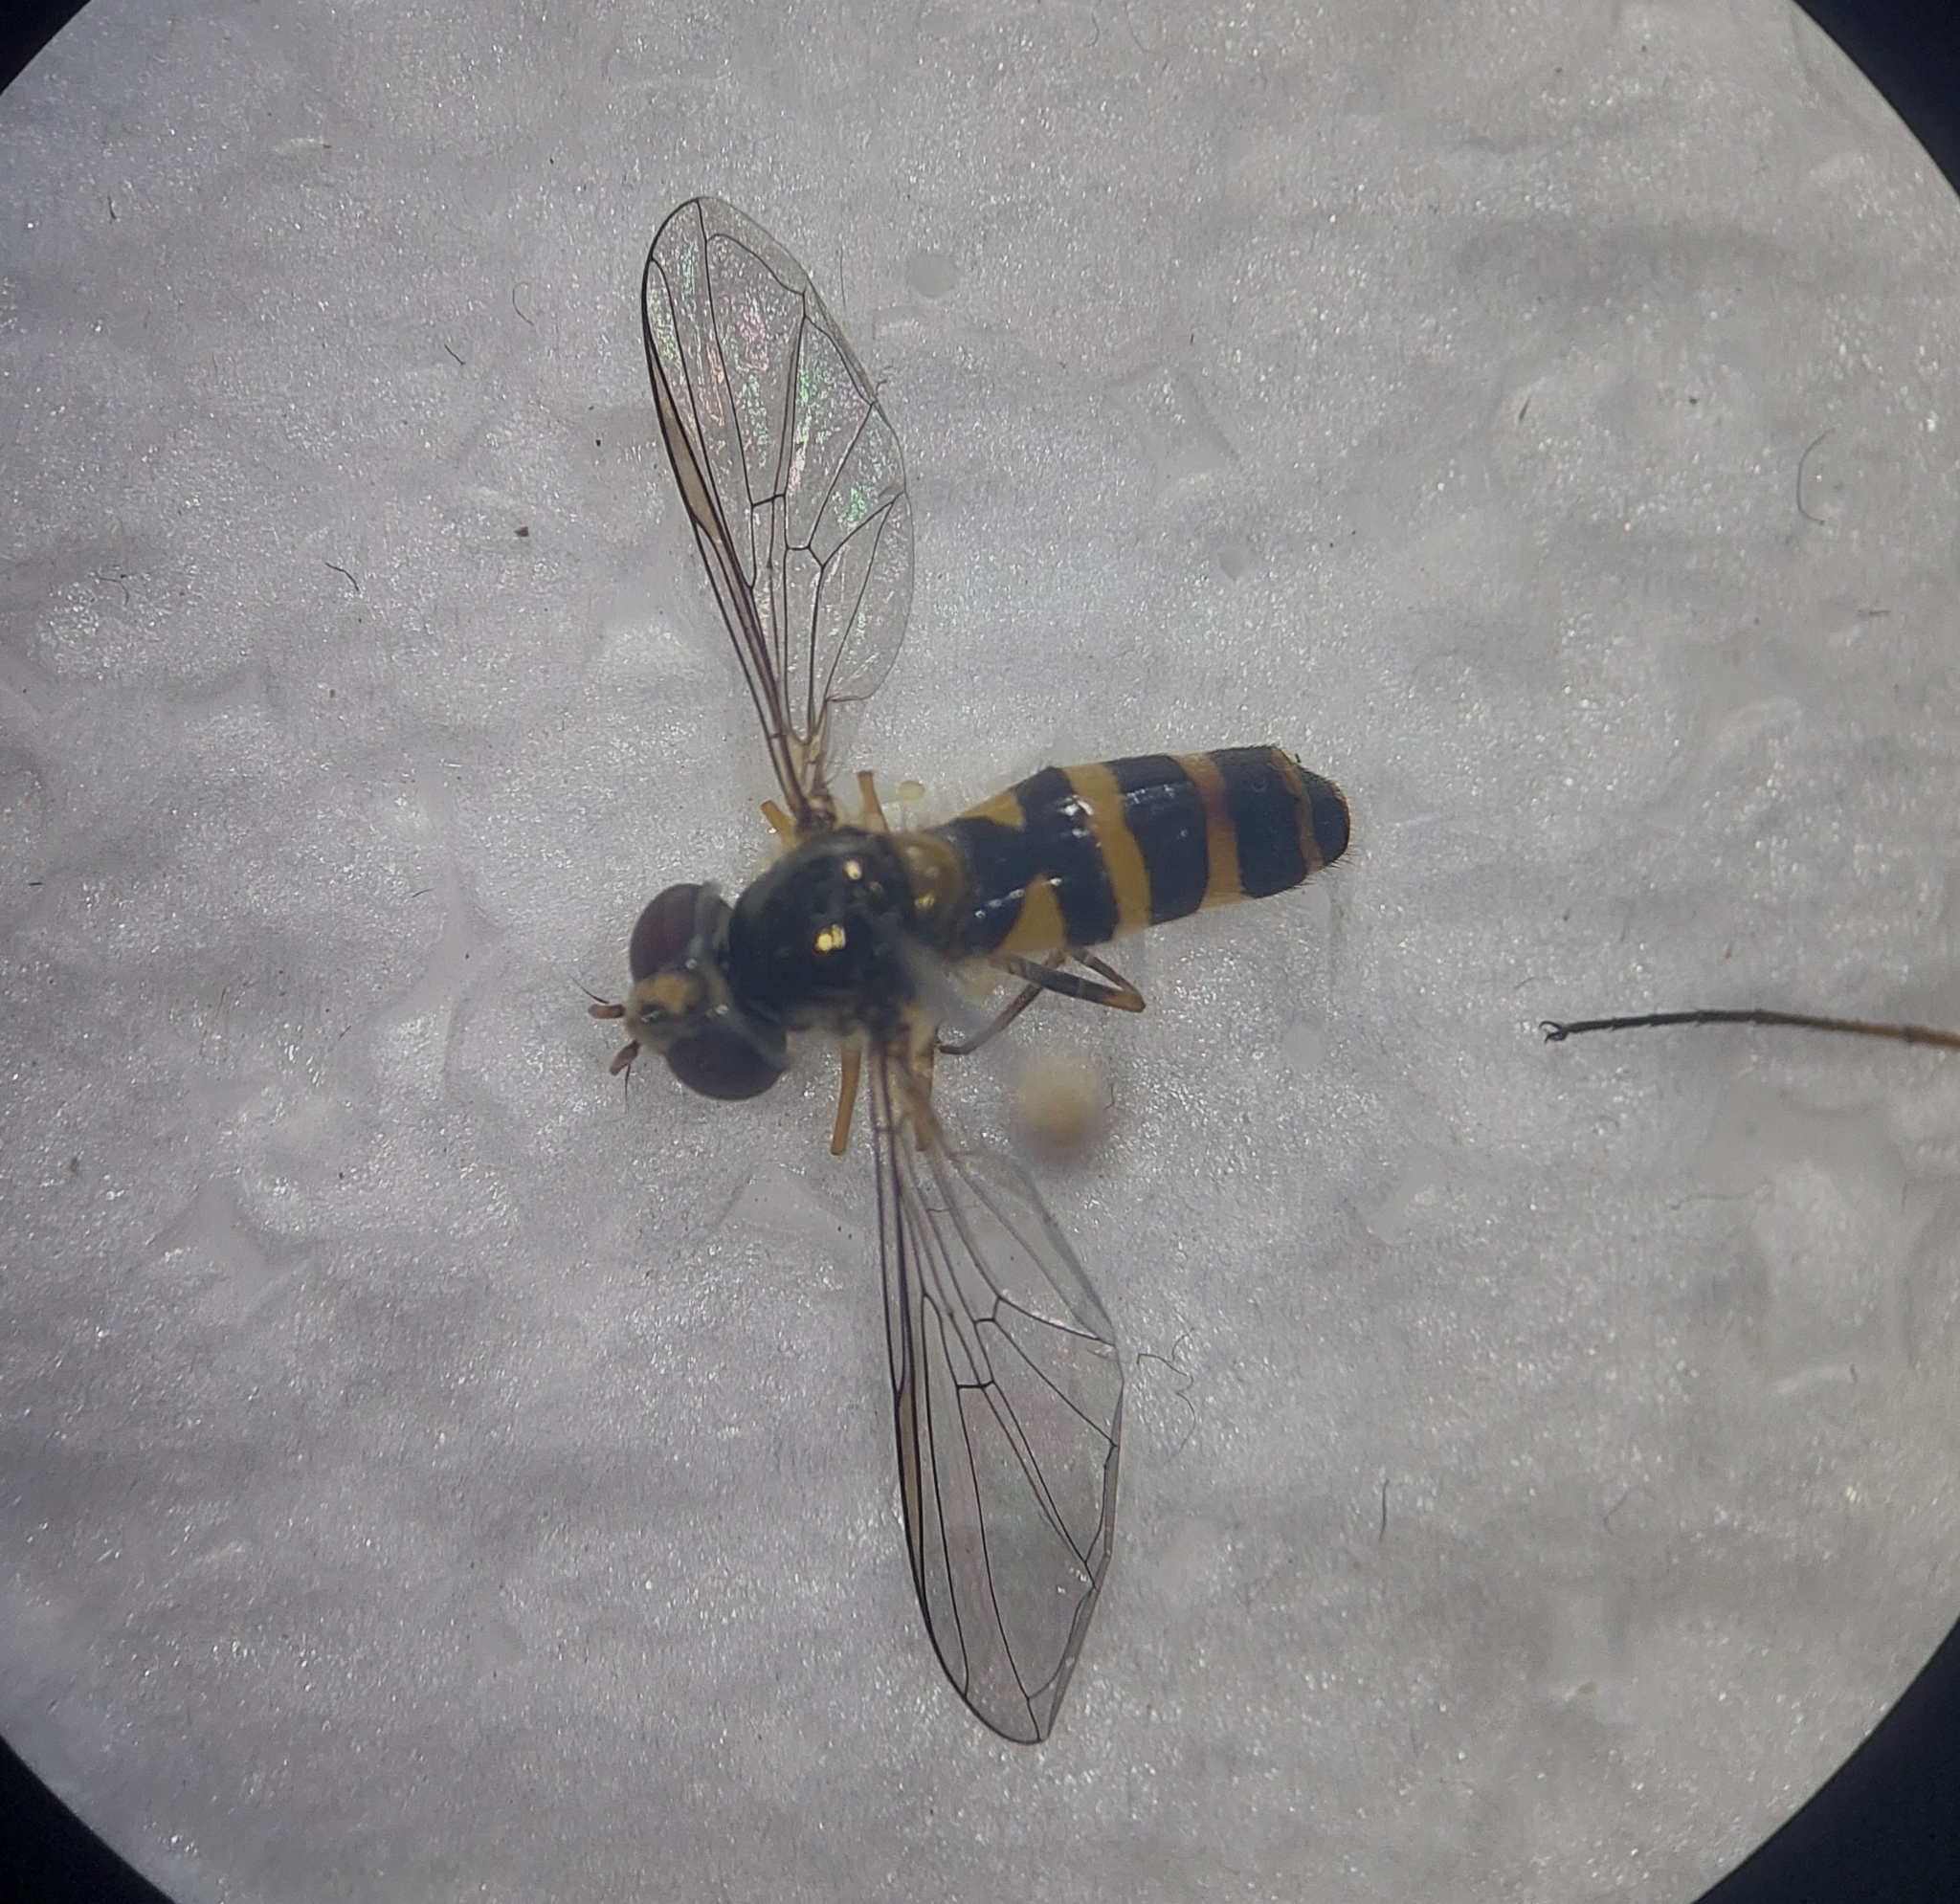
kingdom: Animalia
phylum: Arthropoda
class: Insecta
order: Diptera
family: Syrphidae
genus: Fagisyrphus
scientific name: Fagisyrphus cincta
